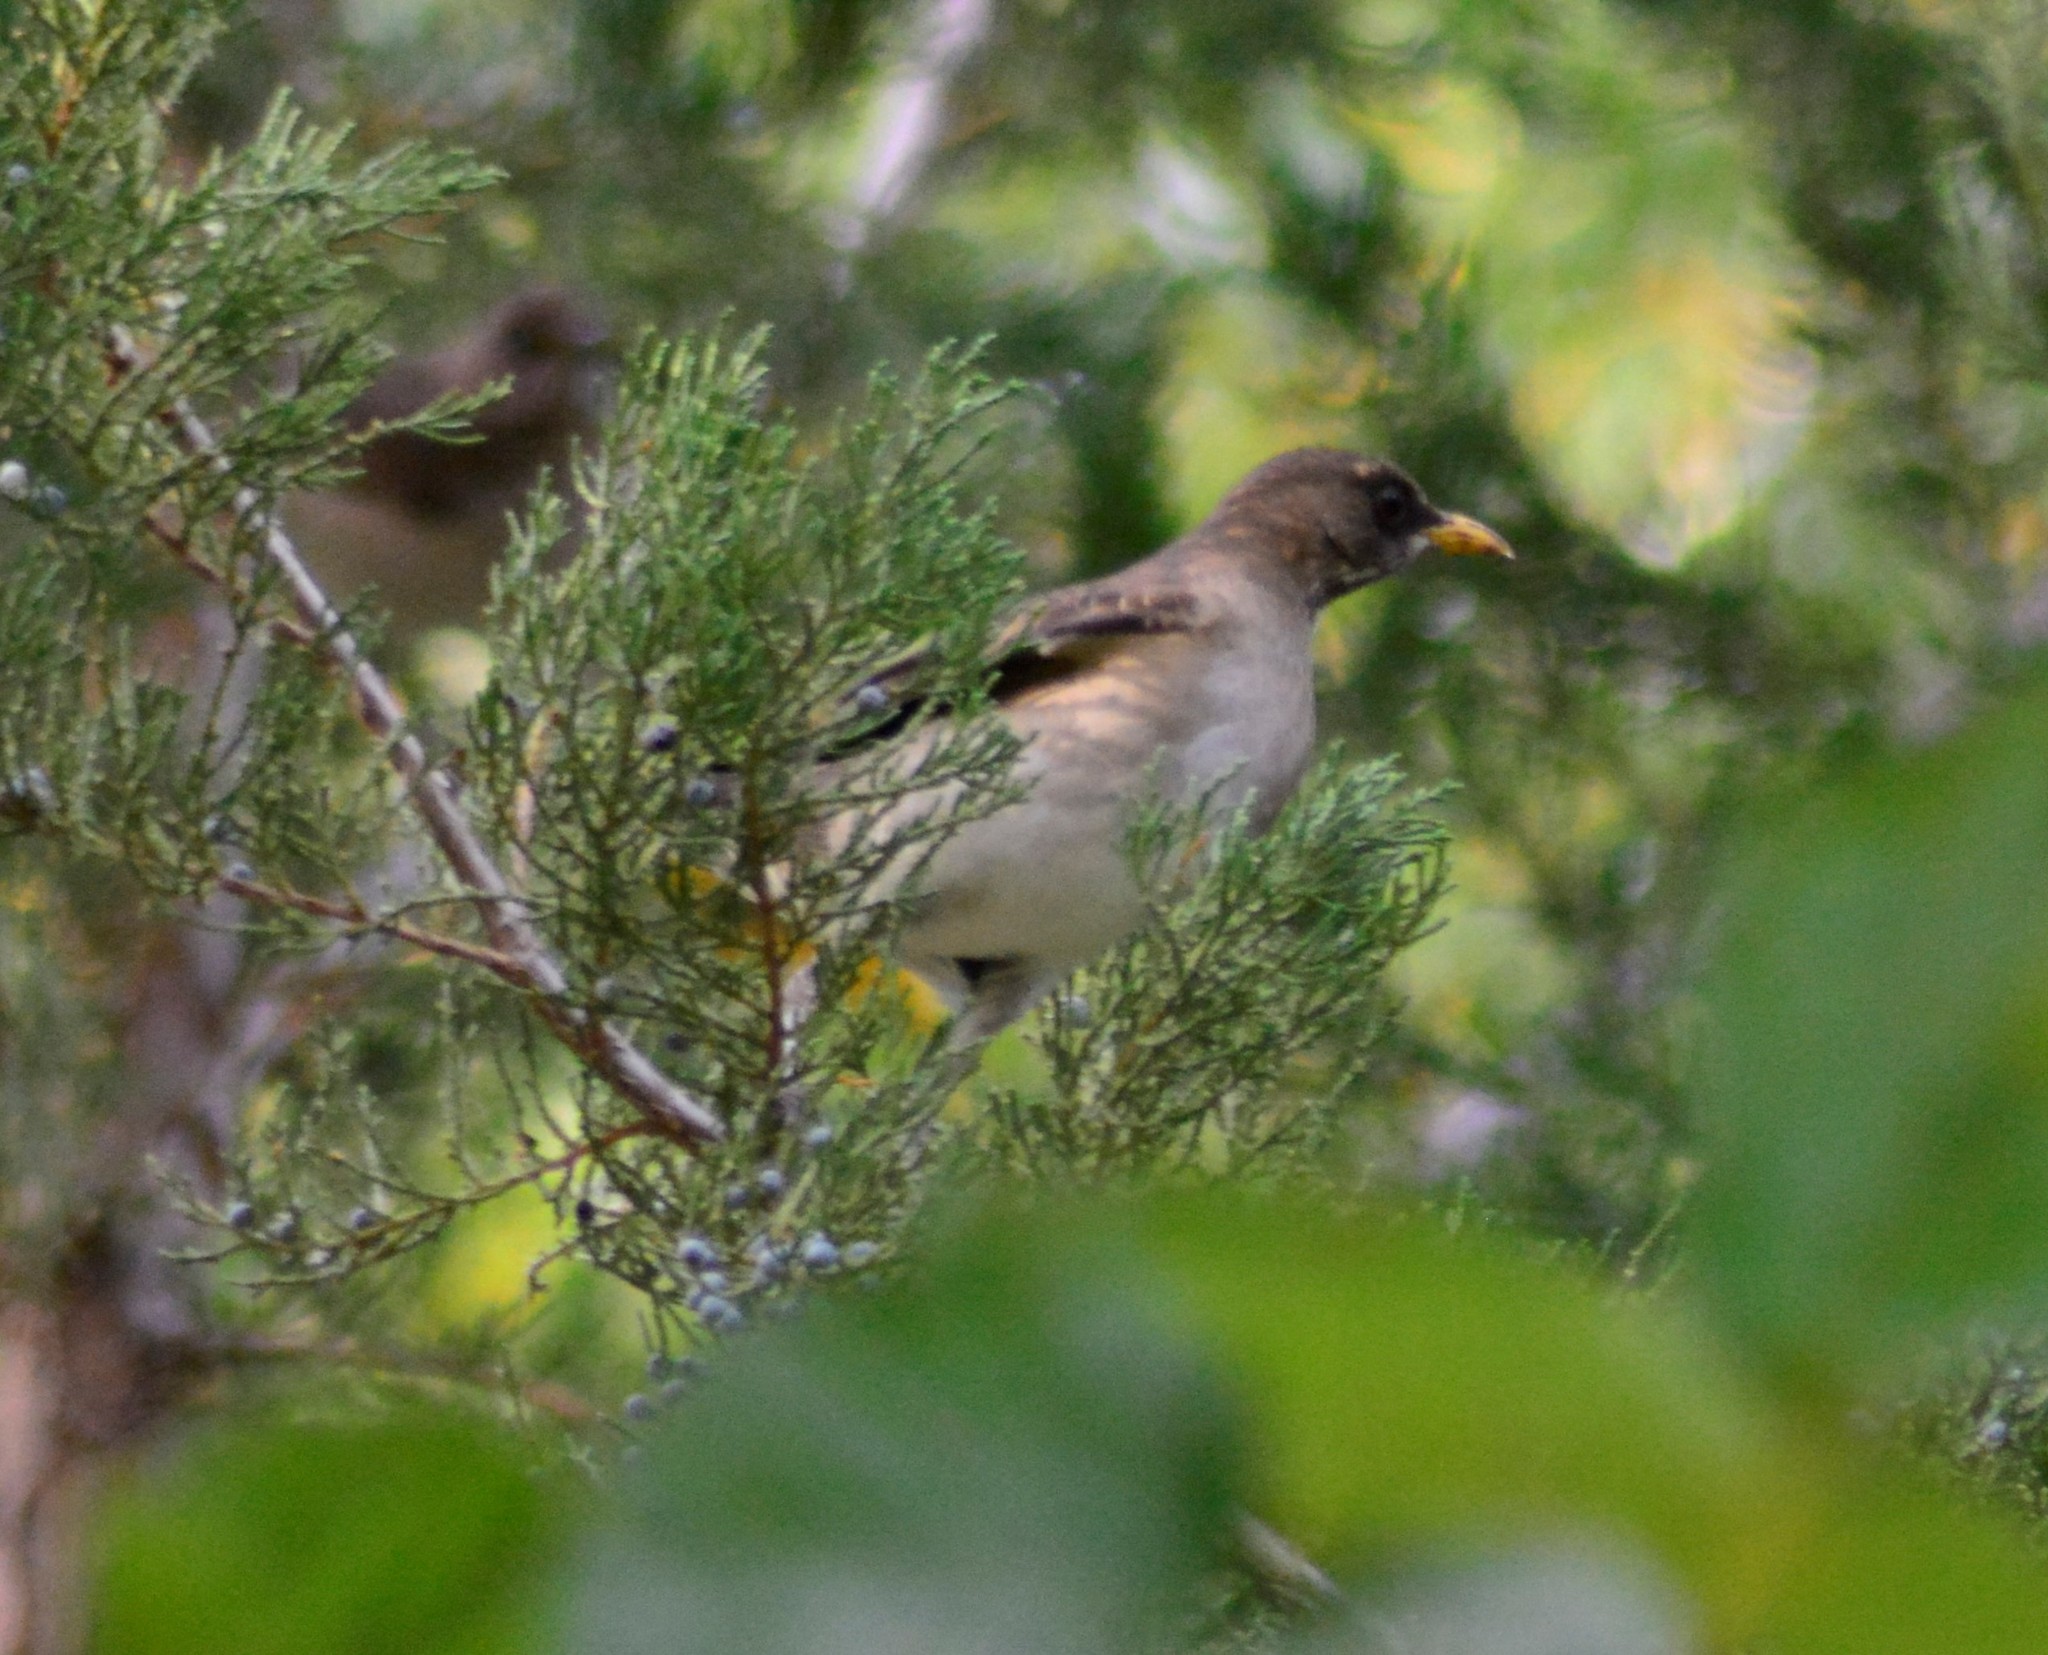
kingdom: Animalia
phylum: Chordata
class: Aves
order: Passeriformes
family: Turdidae
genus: Turdus
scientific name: Turdus amaurochalinus
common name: Creamy-bellied thrush
